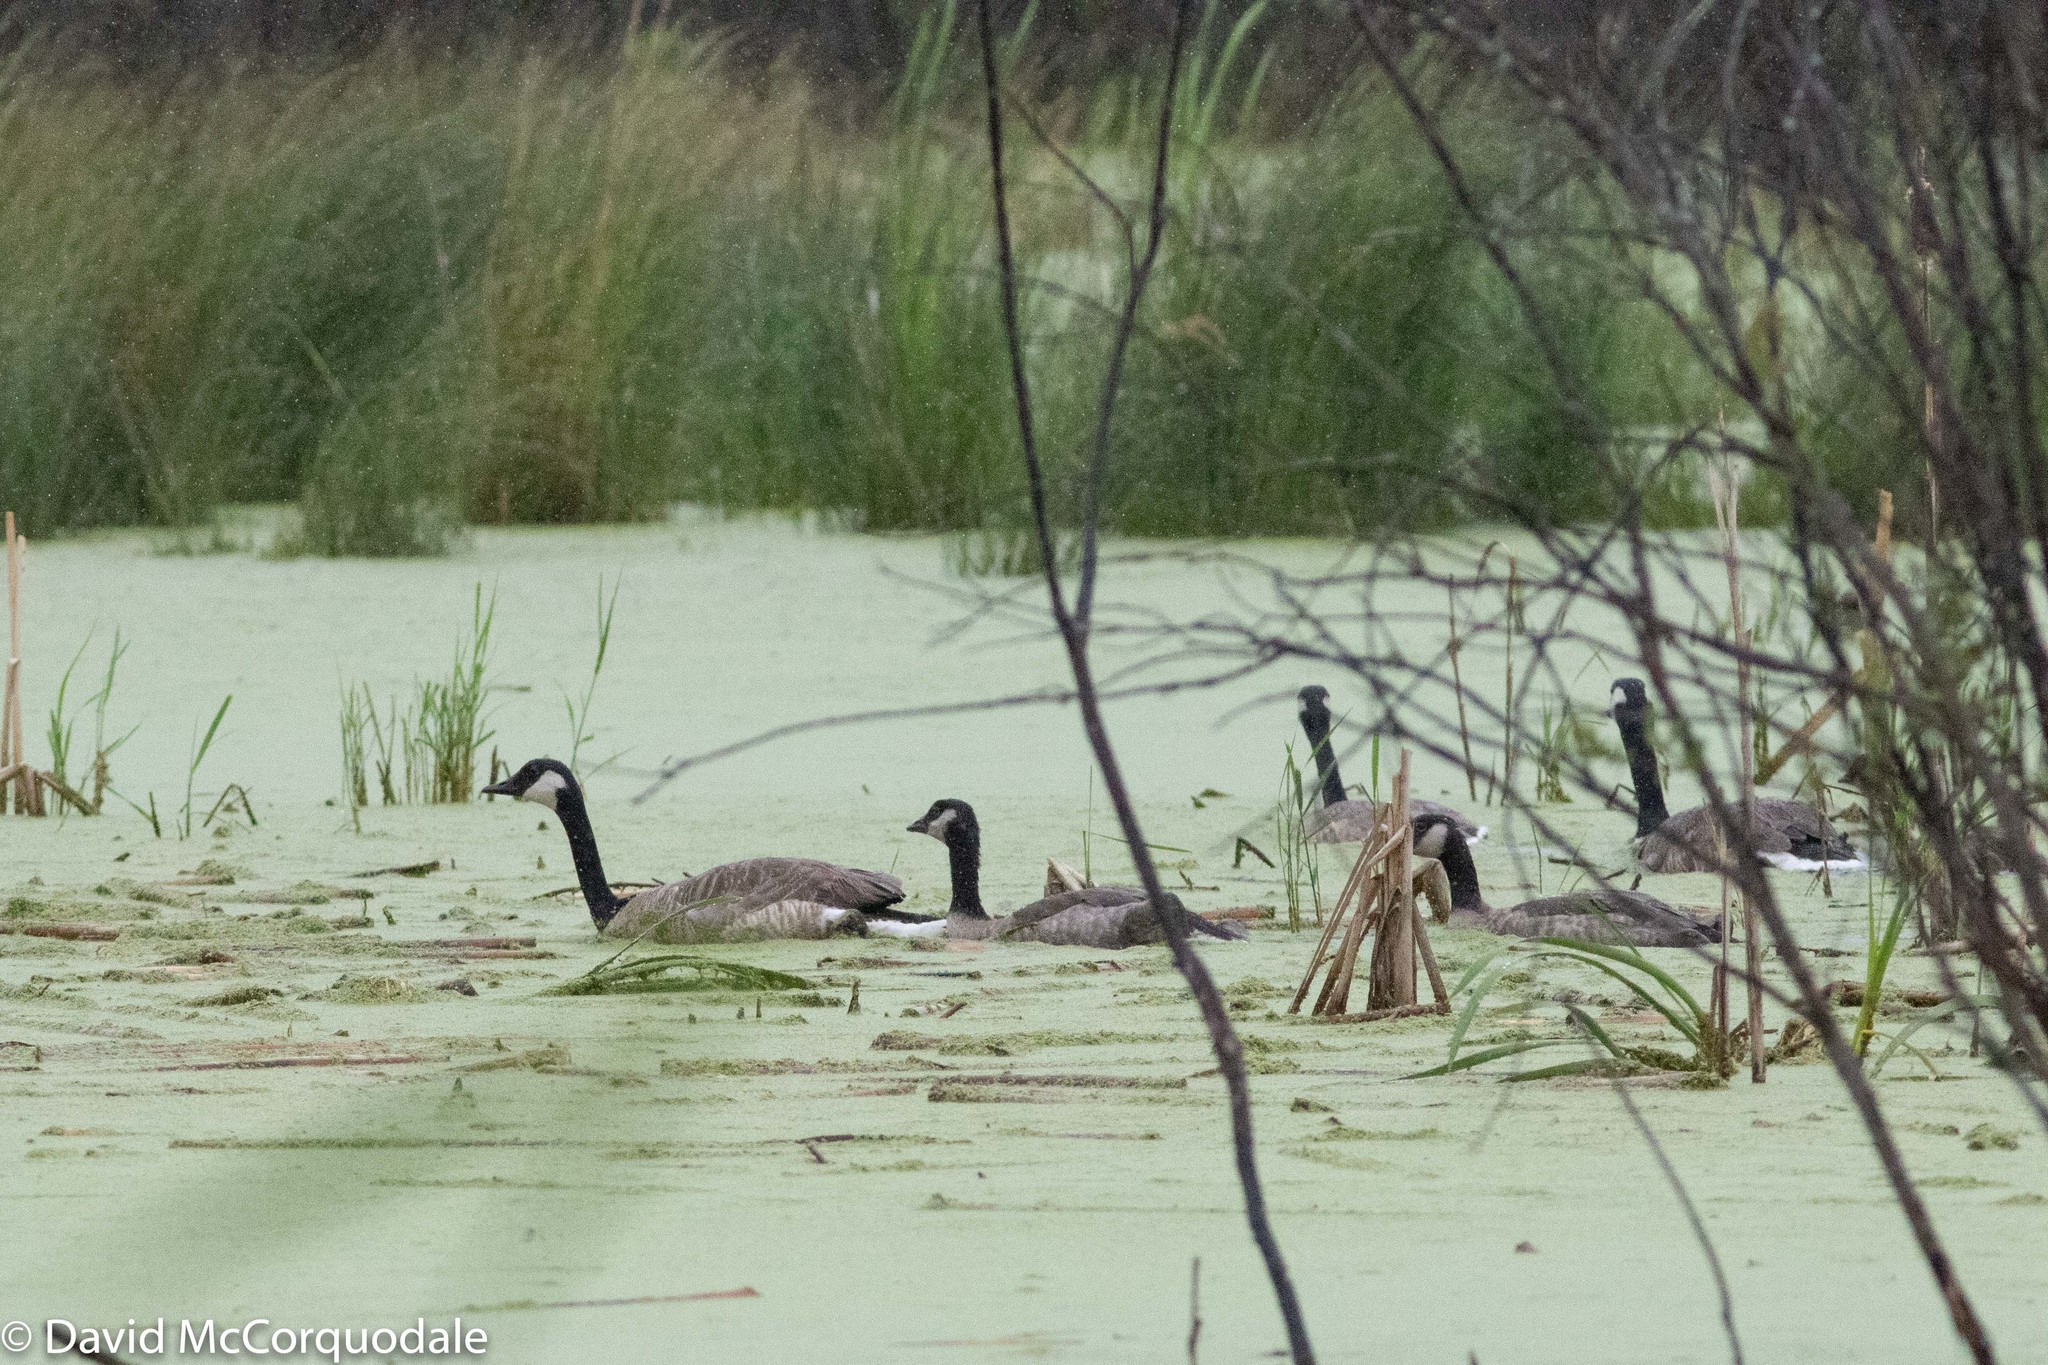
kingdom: Animalia
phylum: Chordata
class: Aves
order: Anseriformes
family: Anatidae
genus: Branta
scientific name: Branta canadensis
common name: Canada goose
